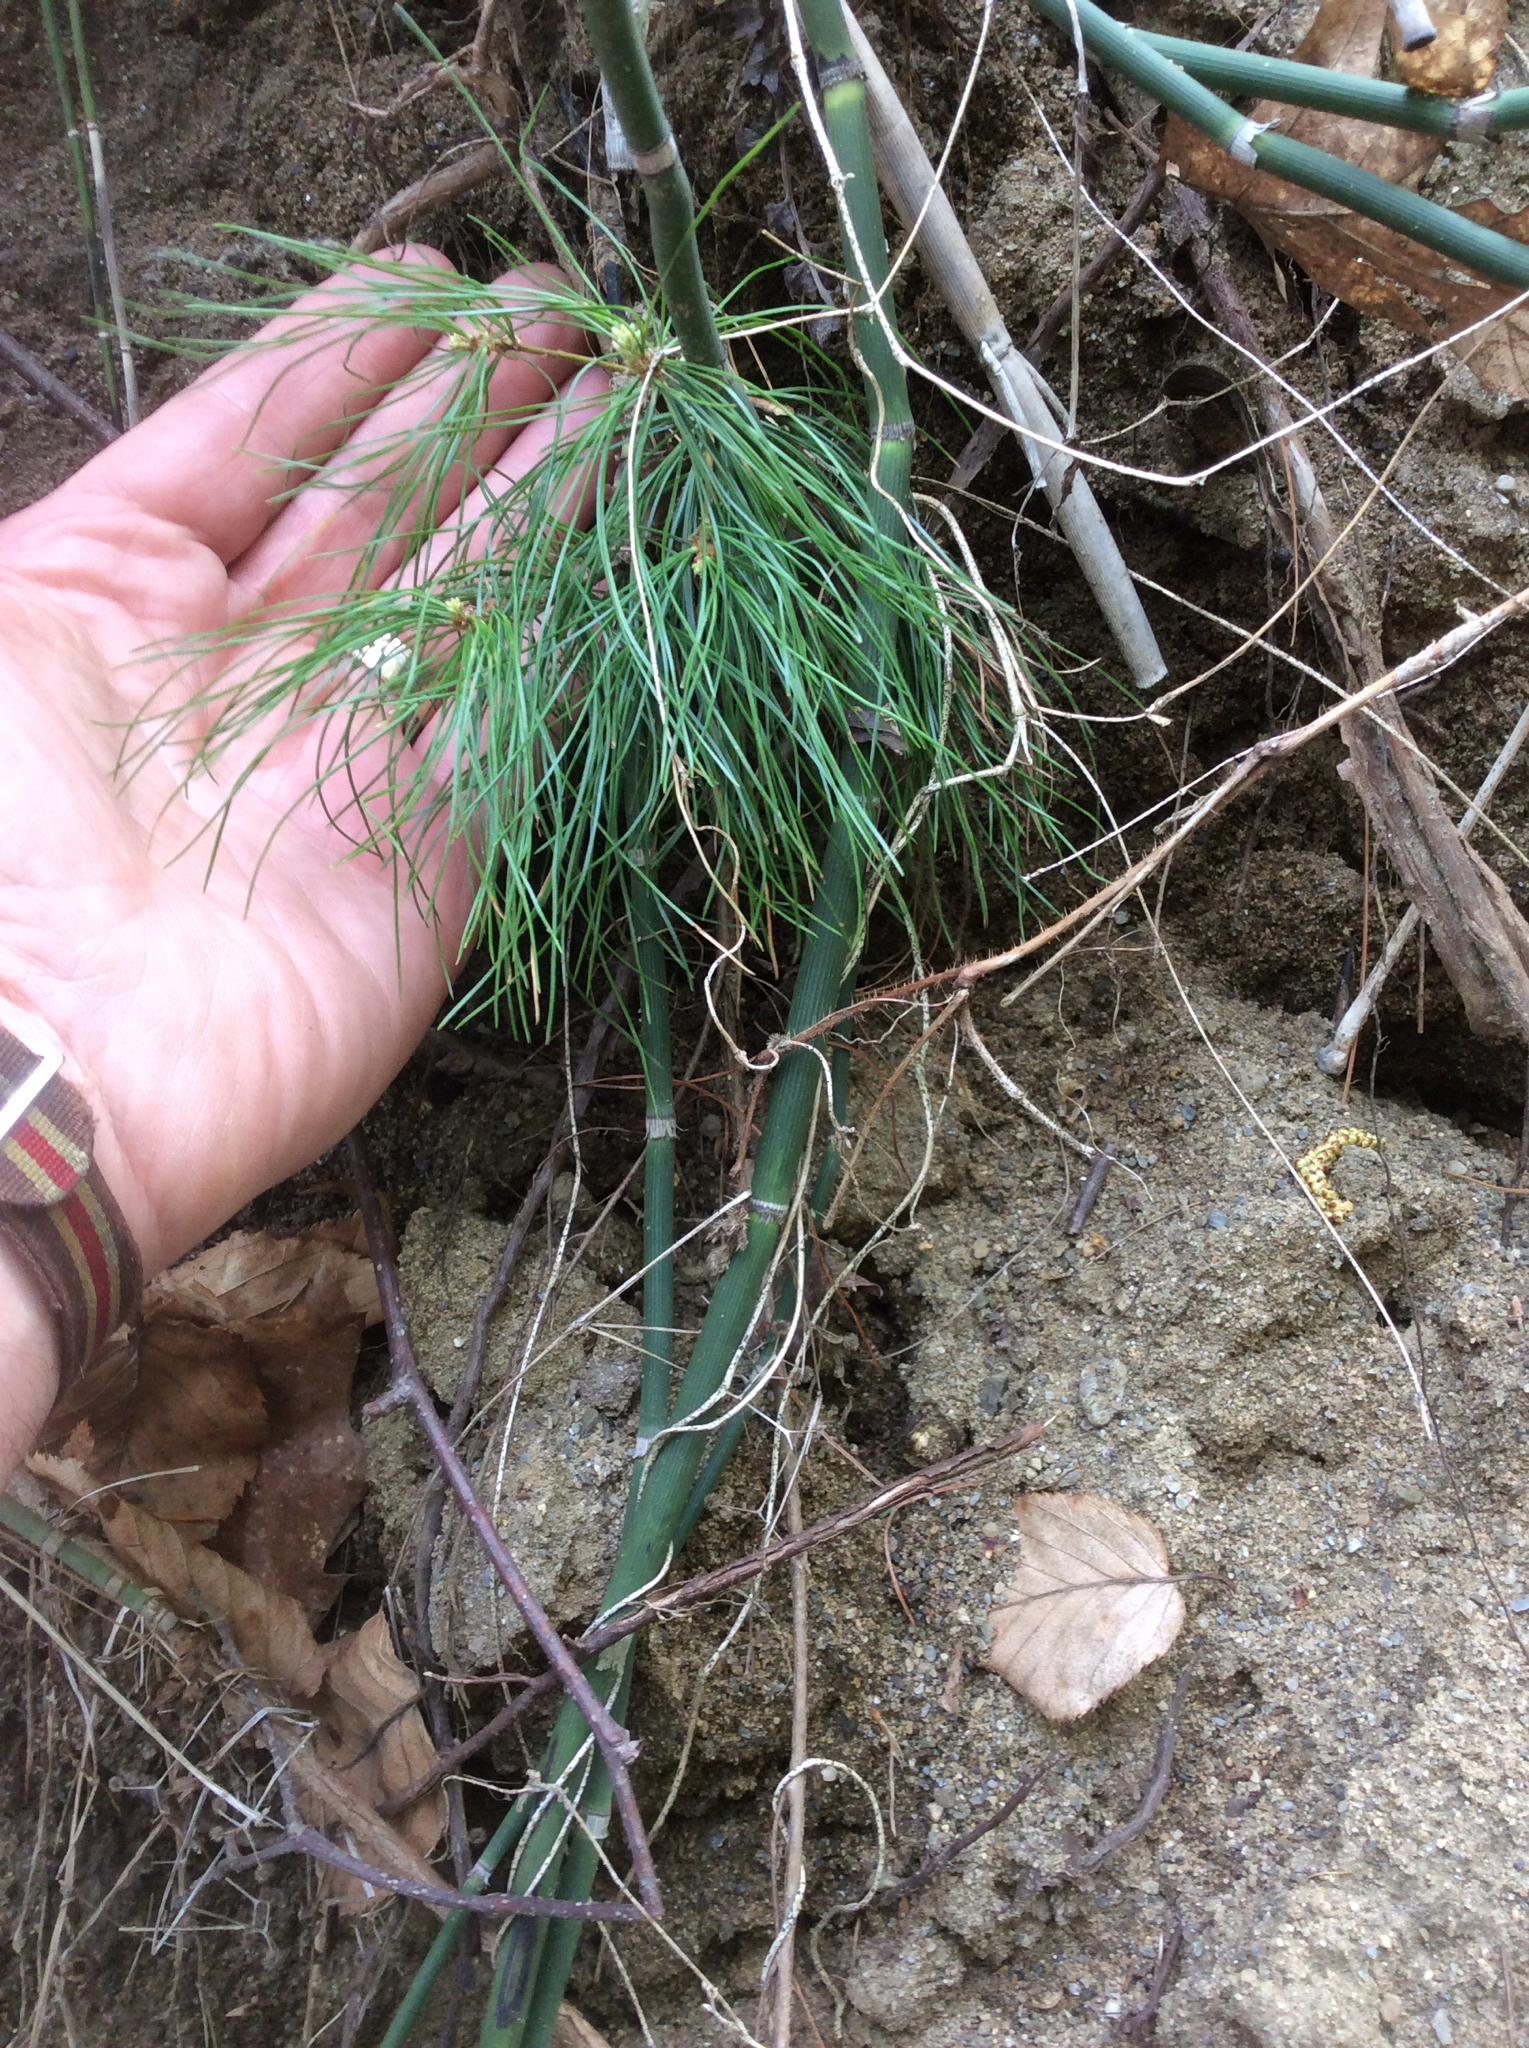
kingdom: Plantae
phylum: Tracheophyta
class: Pinopsida
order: Pinales
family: Pinaceae
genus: Pinus
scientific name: Pinus strobus
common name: Weymouth pine
